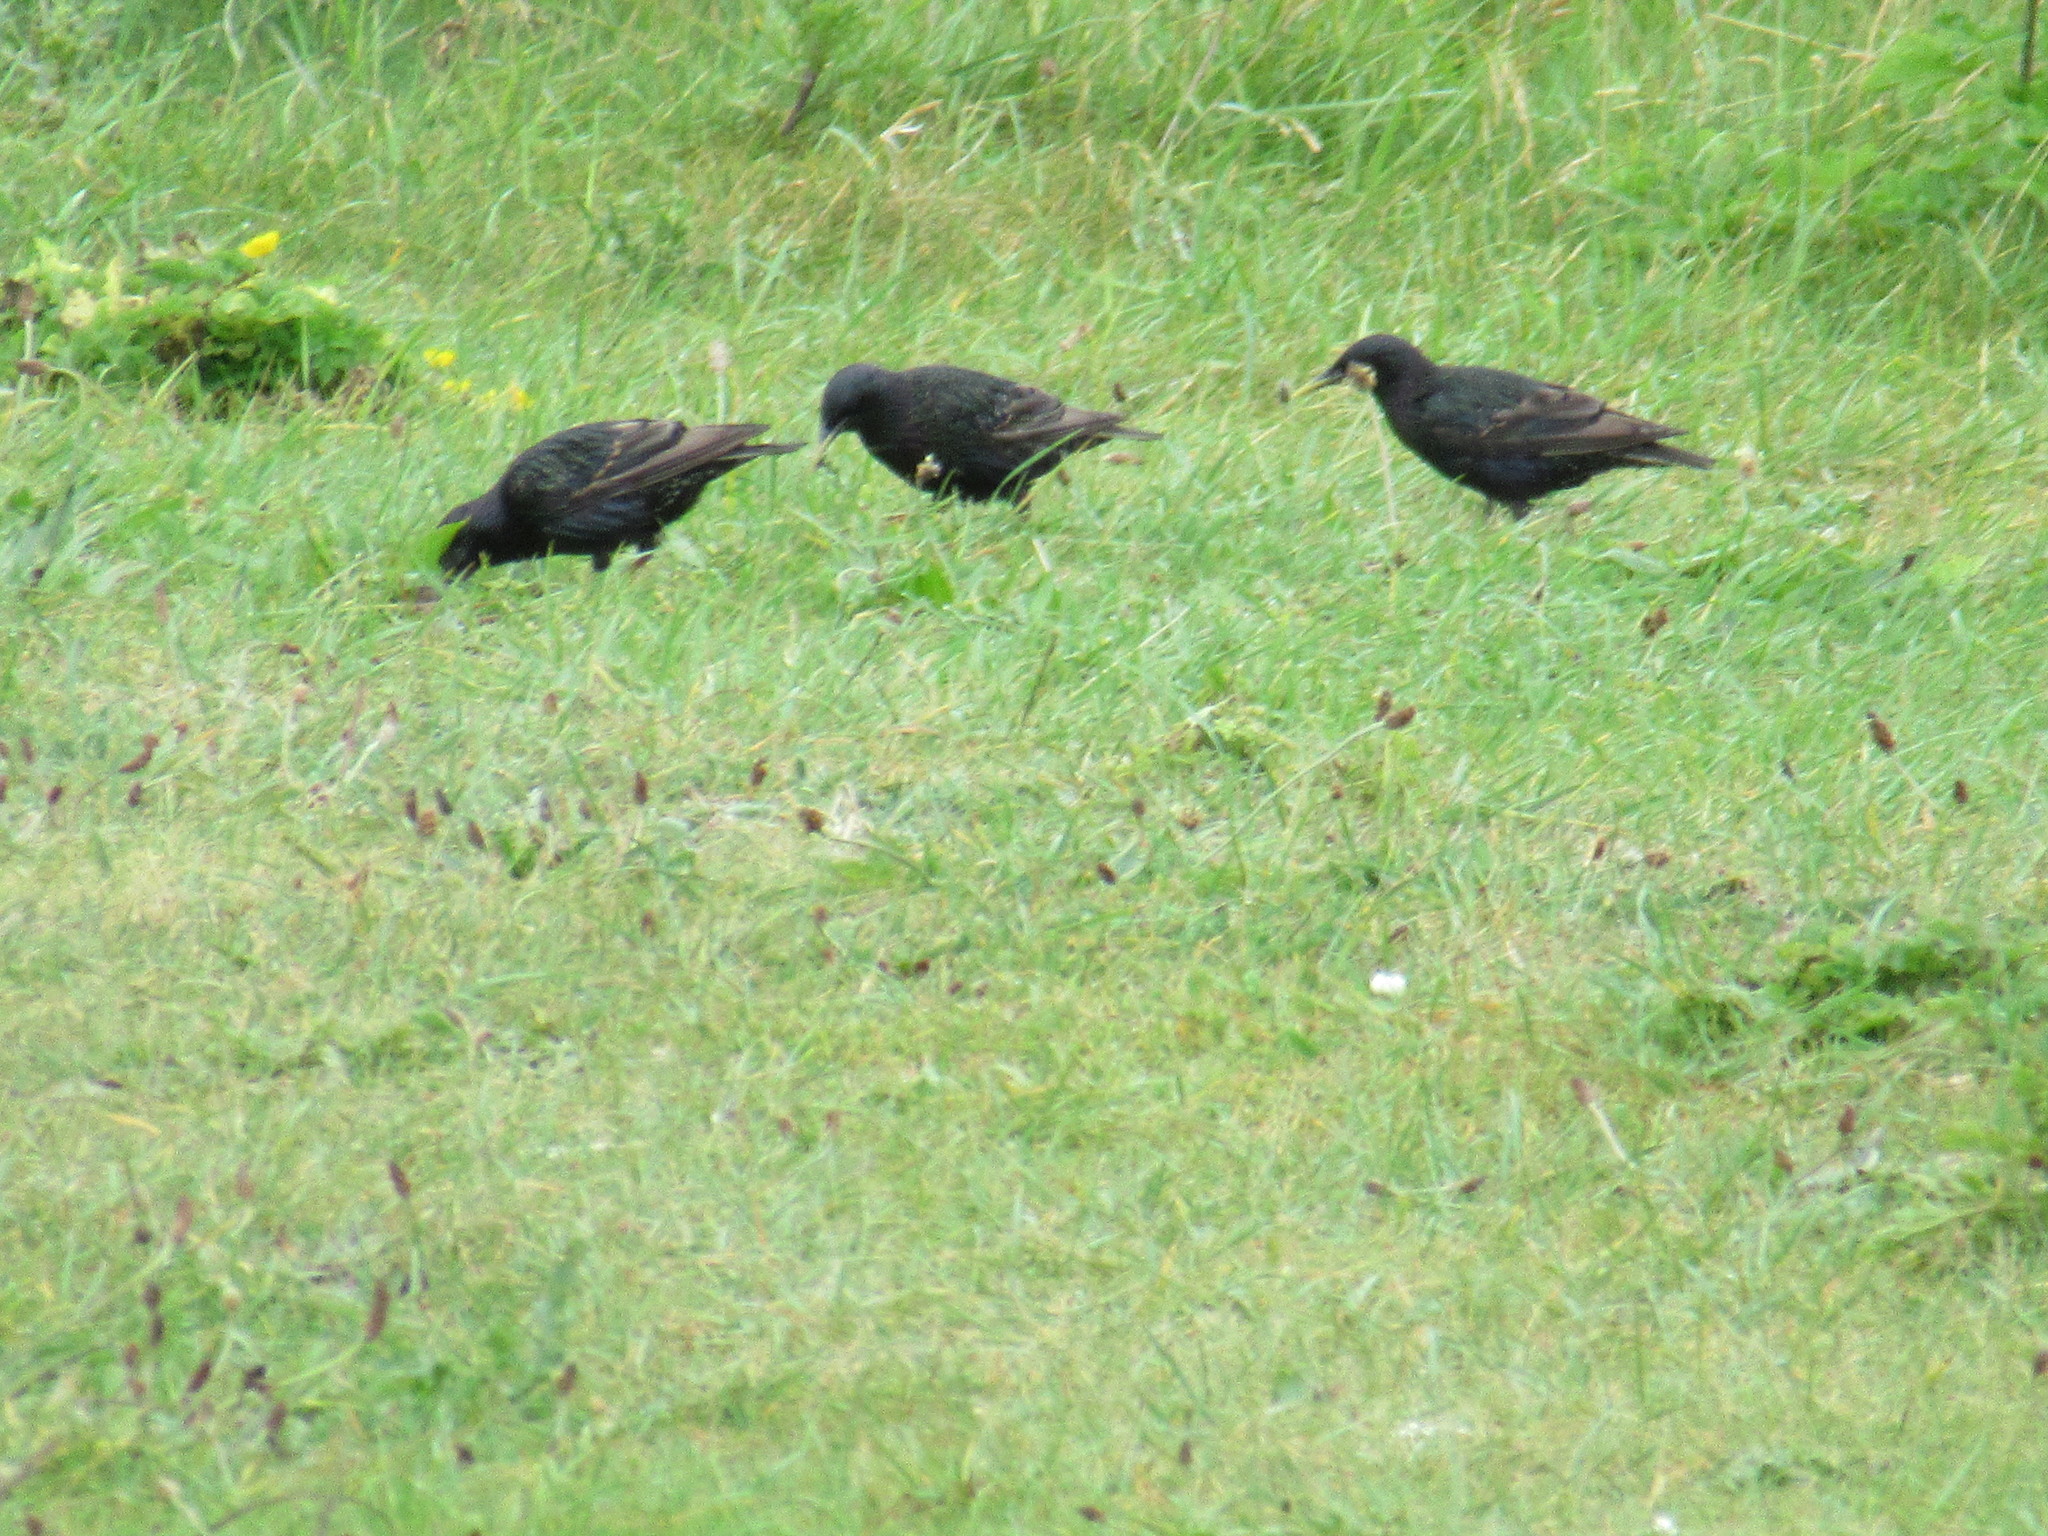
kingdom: Animalia
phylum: Chordata
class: Aves
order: Passeriformes
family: Sturnidae
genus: Sturnus
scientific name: Sturnus vulgaris
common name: Common starling
